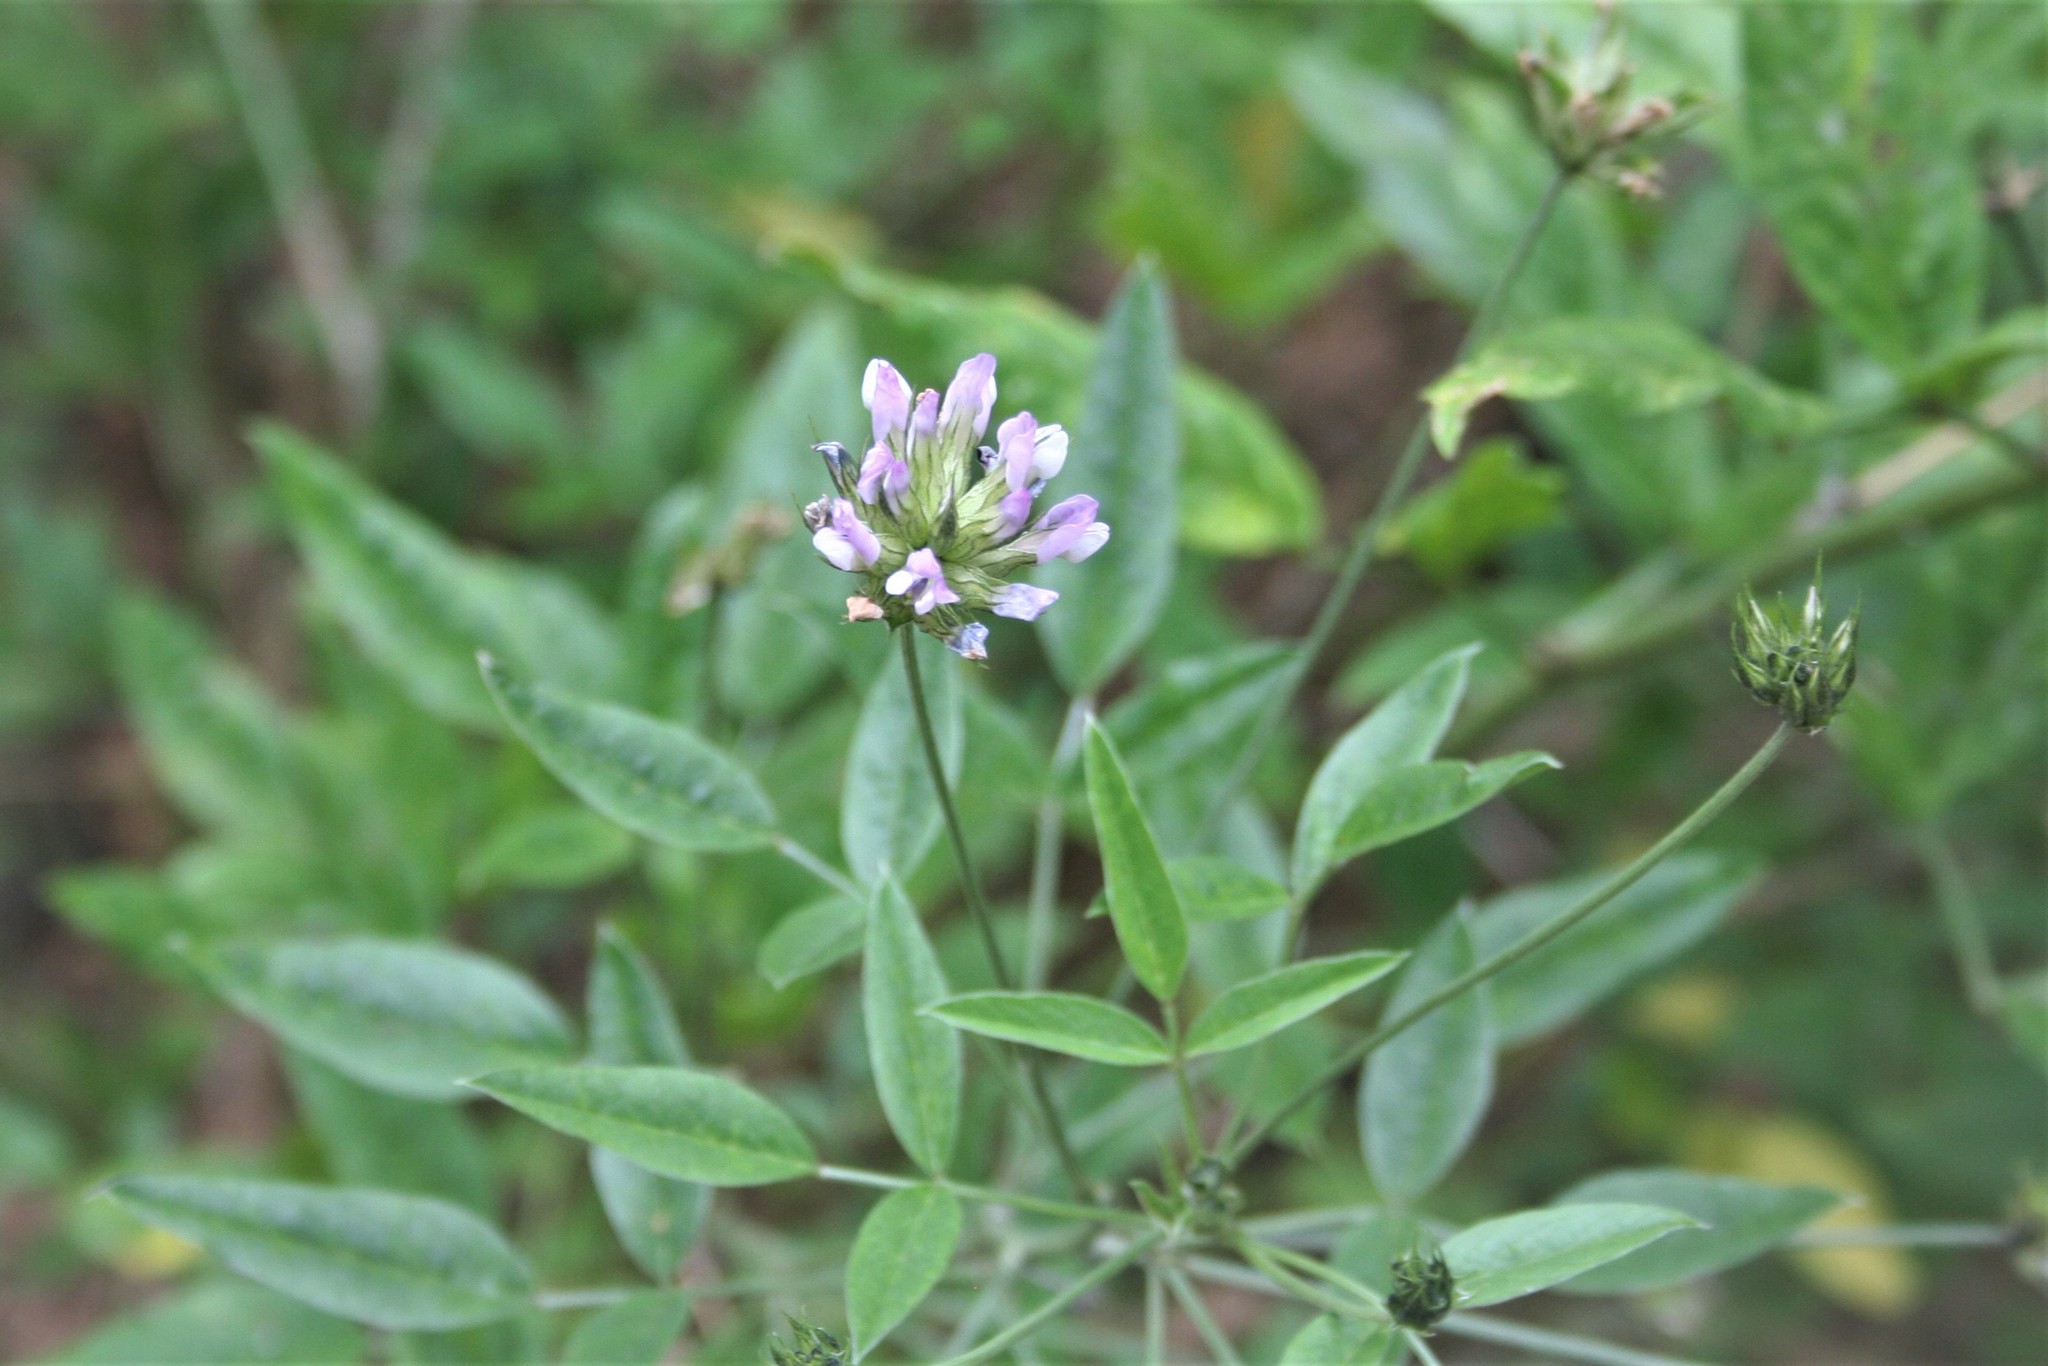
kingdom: Plantae
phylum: Tracheophyta
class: Magnoliopsida
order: Fabales
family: Fabaceae
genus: Bituminaria
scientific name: Bituminaria bituminosa
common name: Arabian pea
